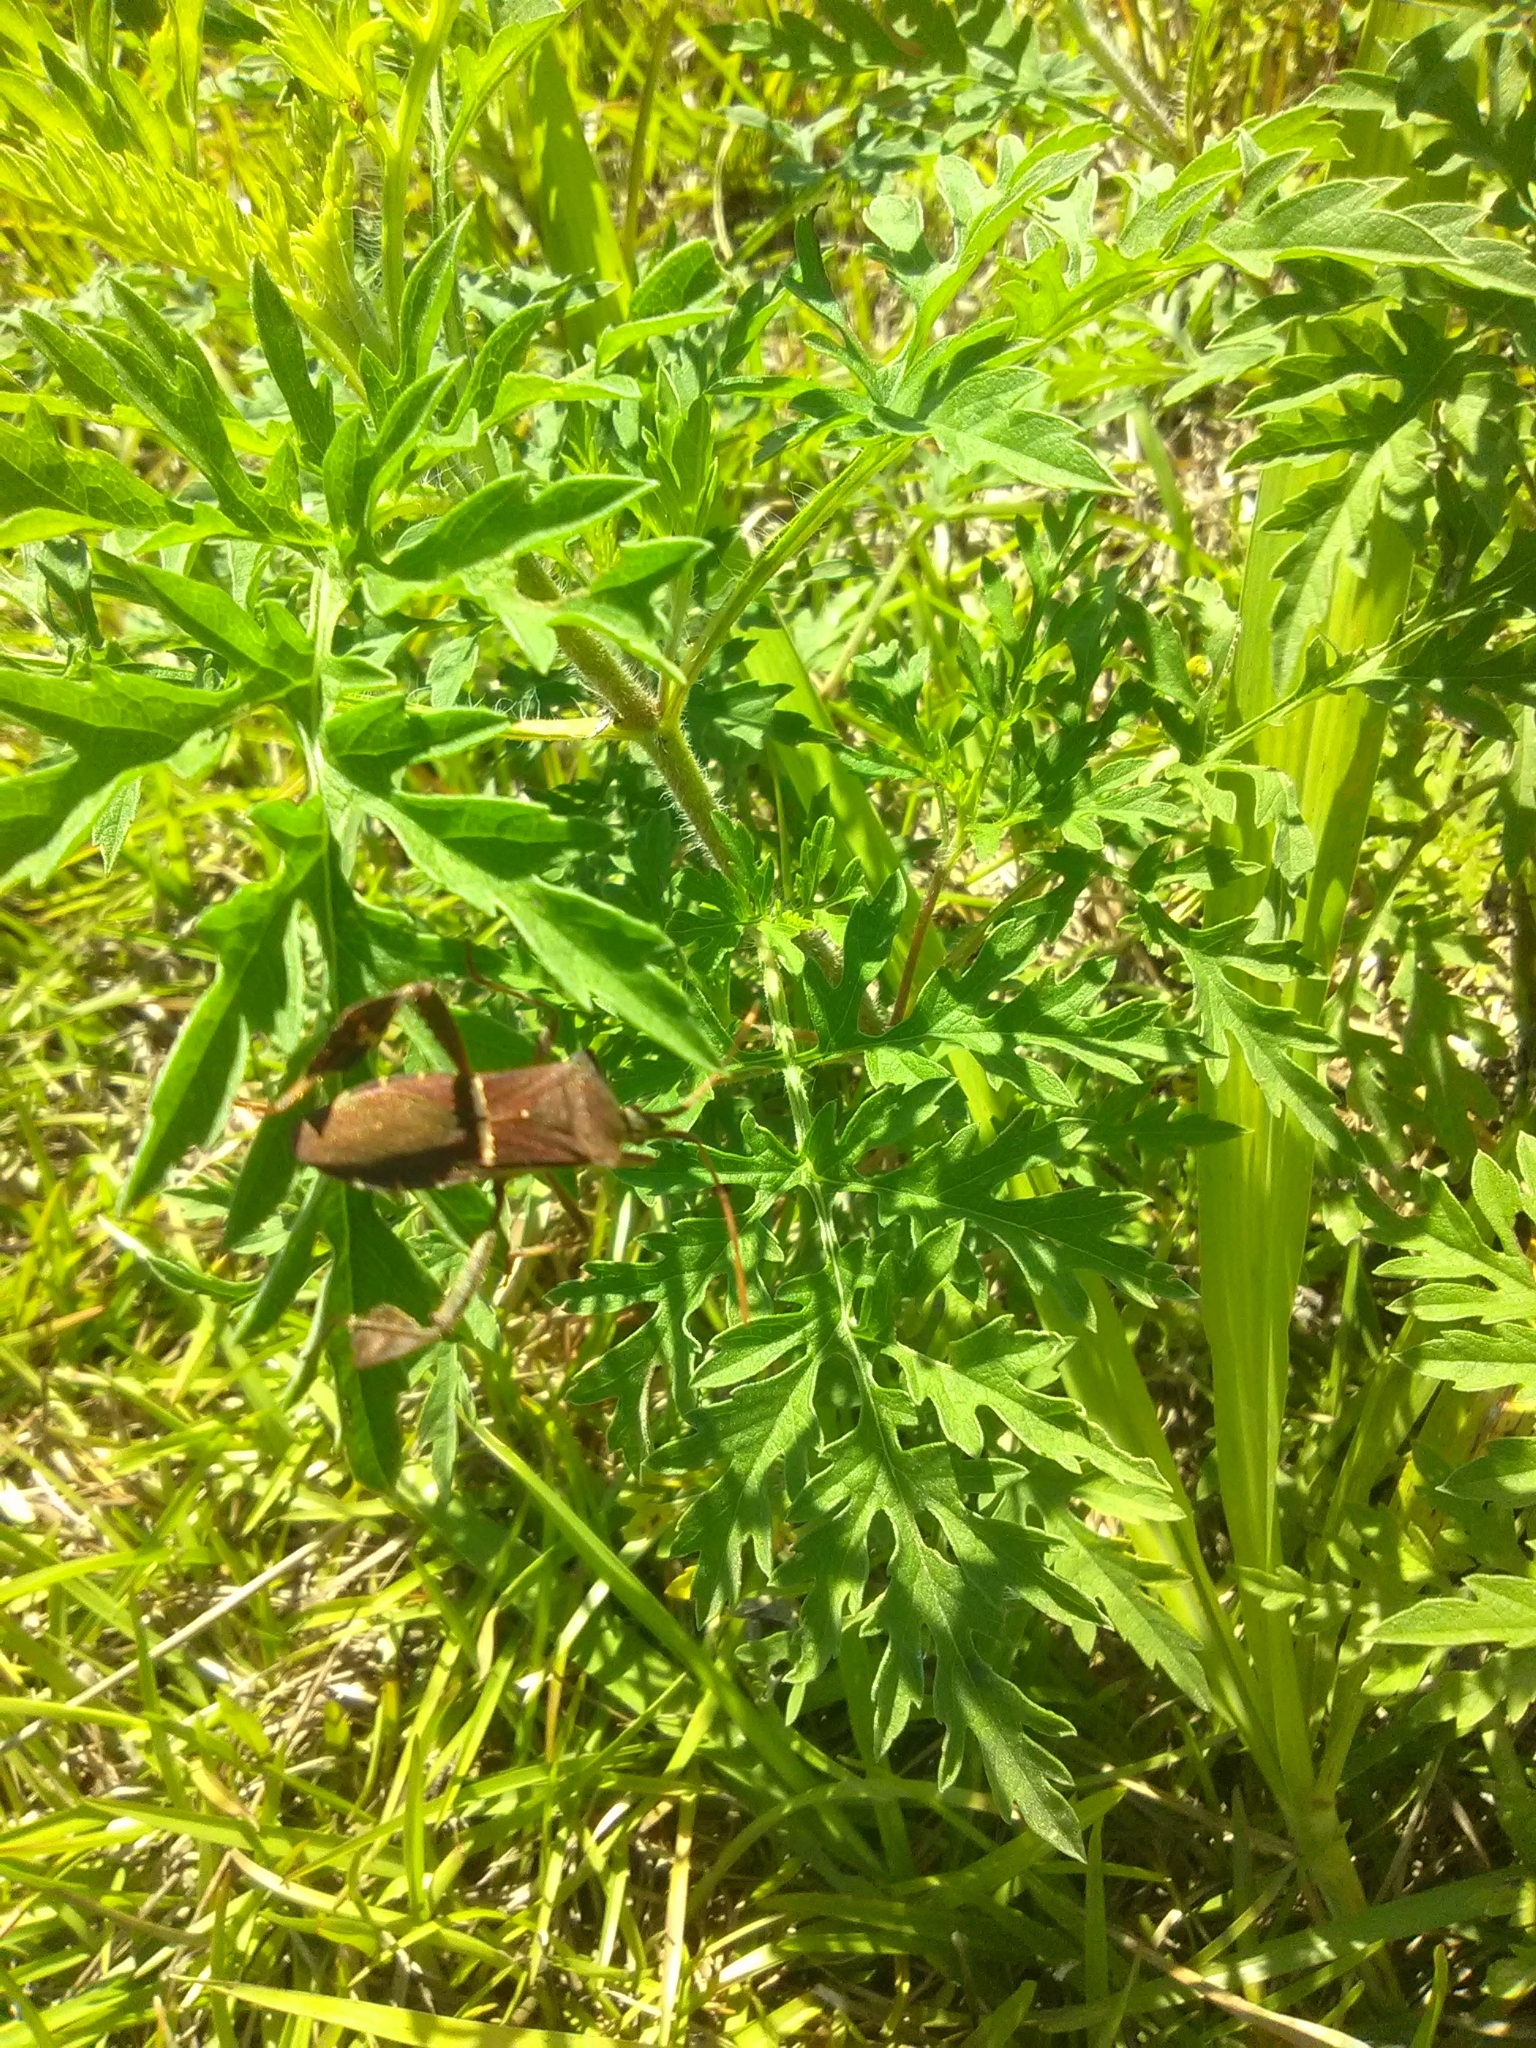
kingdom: Animalia
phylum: Arthropoda
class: Insecta
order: Hemiptera
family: Coreidae
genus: Leptoglossus
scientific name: Leptoglossus phyllopus
